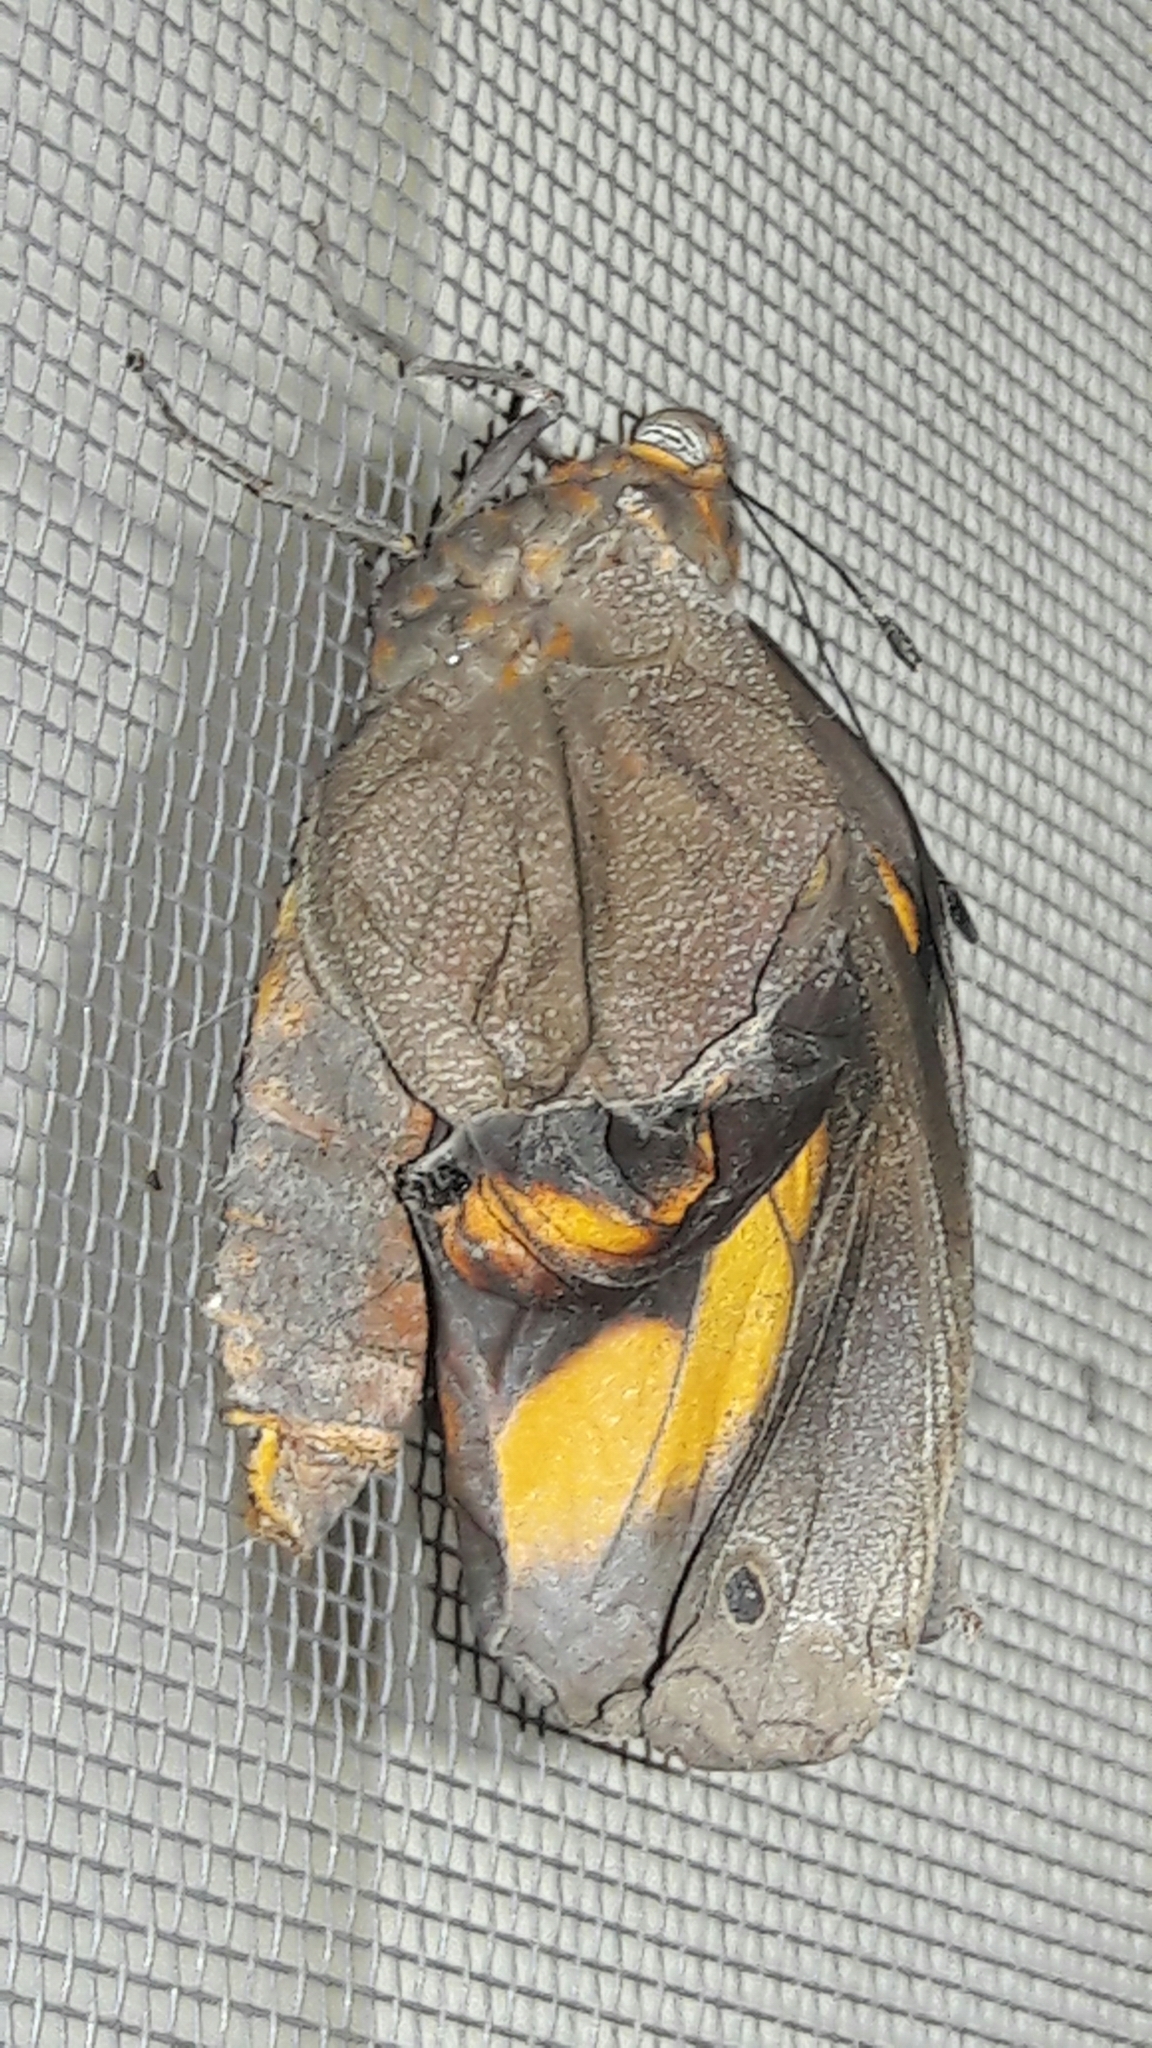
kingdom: Animalia
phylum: Arthropoda
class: Insecta
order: Lepidoptera
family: Nymphalidae
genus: Brassolis
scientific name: Brassolis sophorae
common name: Coconut caterpillar
